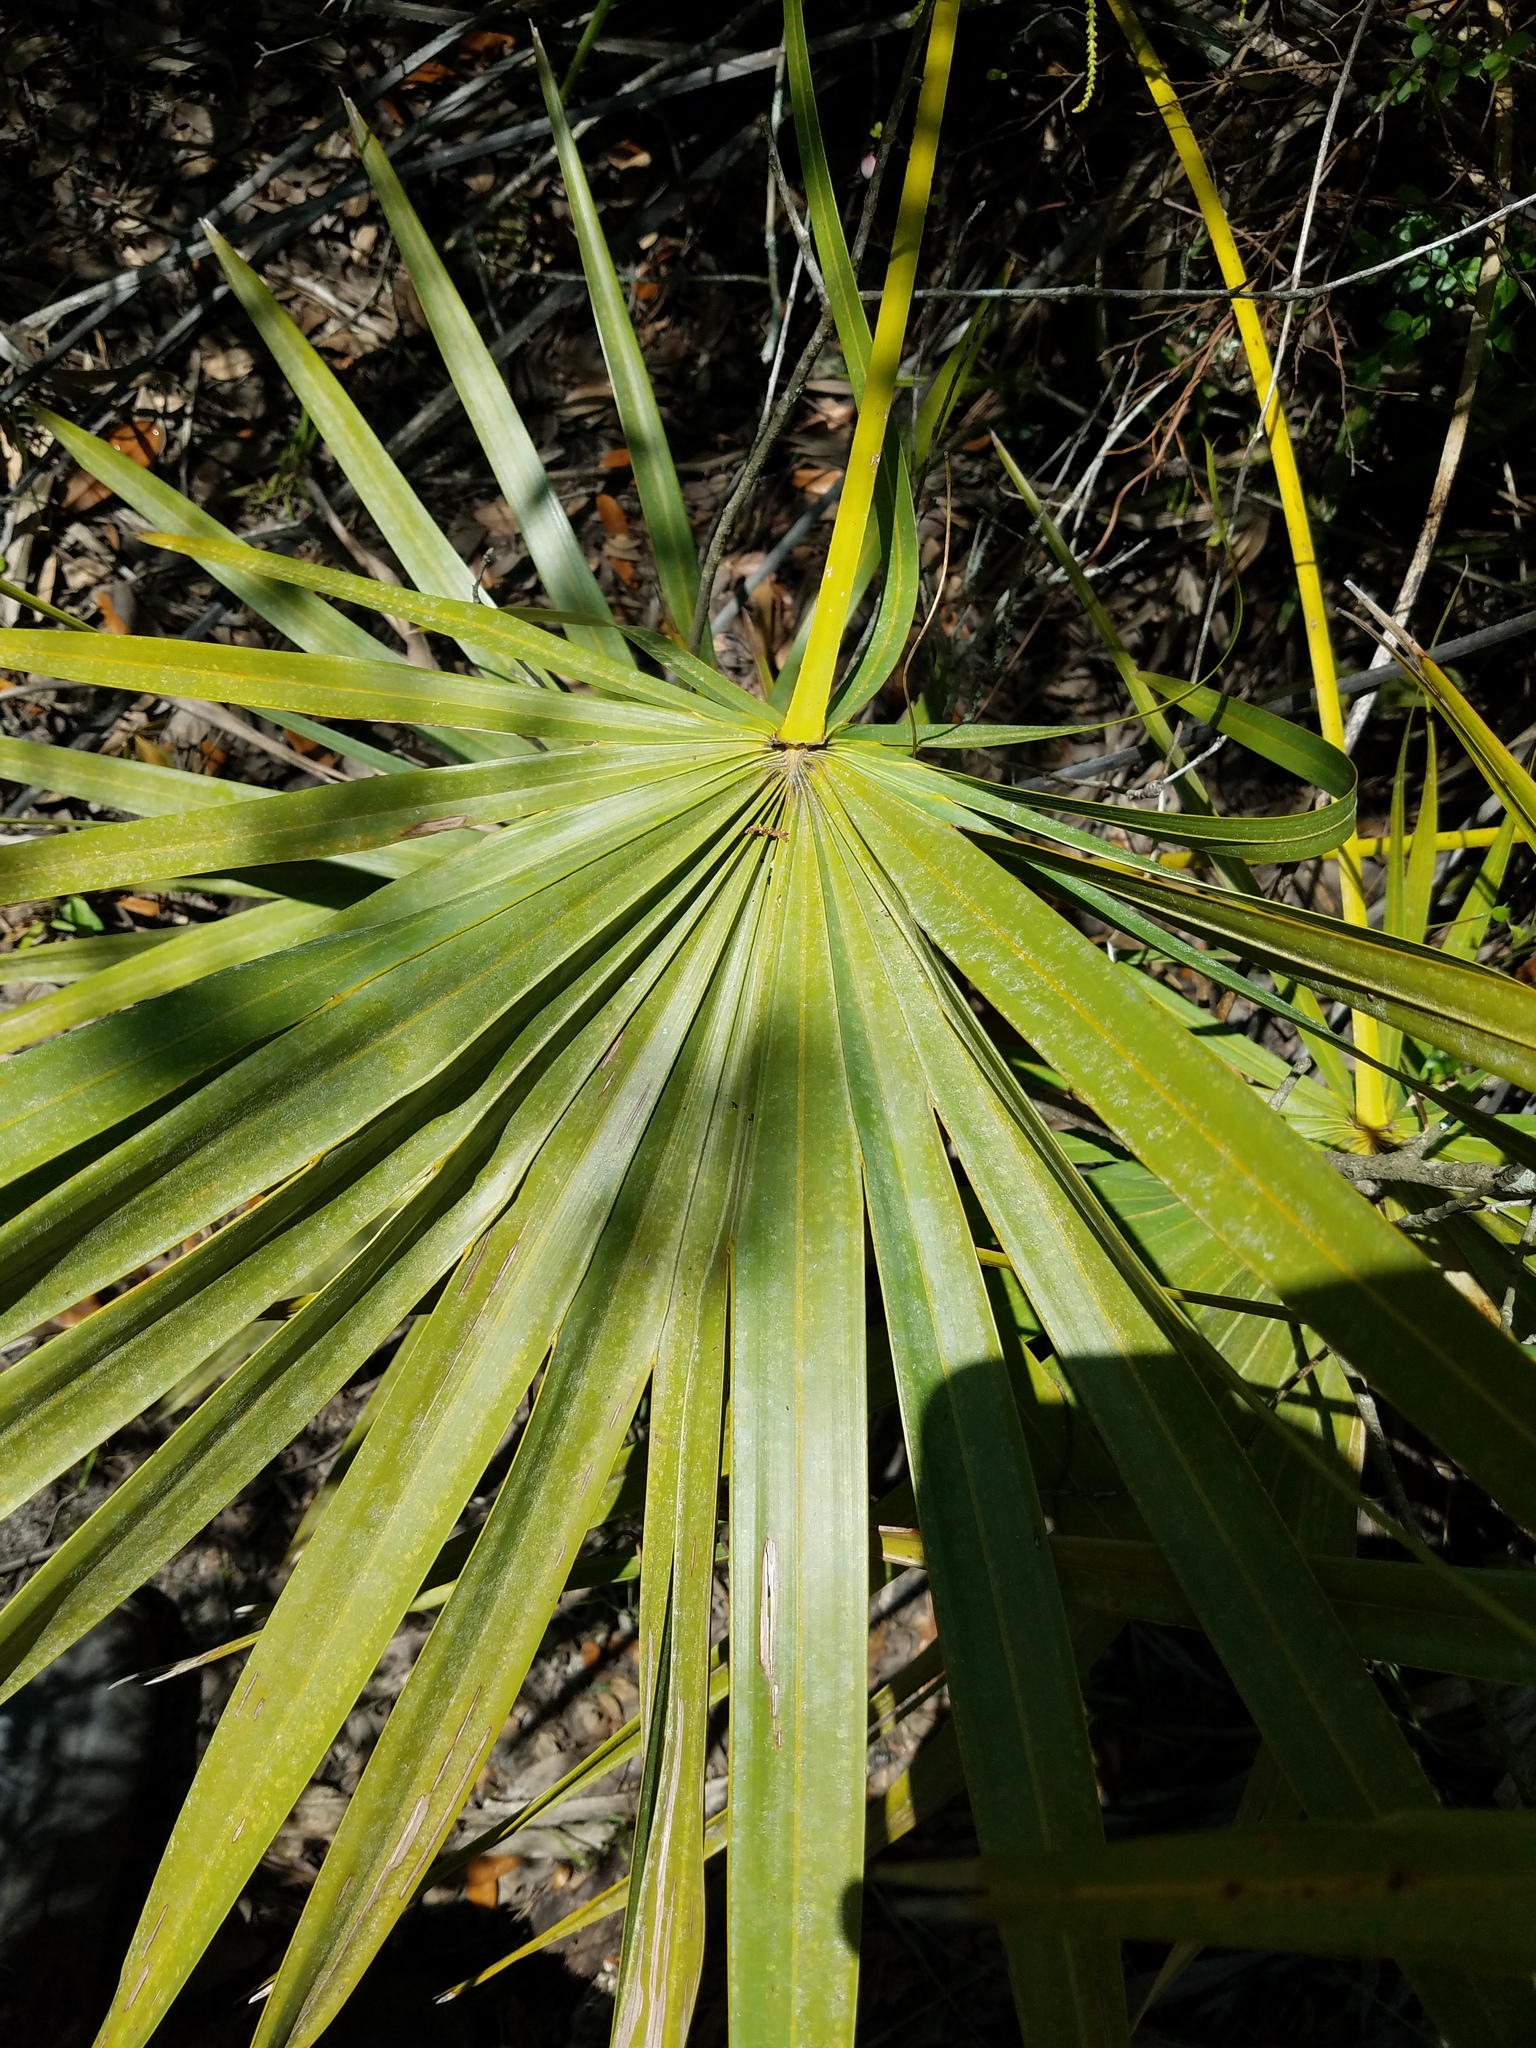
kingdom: Plantae
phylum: Tracheophyta
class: Liliopsida
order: Arecales
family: Arecaceae
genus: Serenoa
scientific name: Serenoa repens
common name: Saw-palmetto
